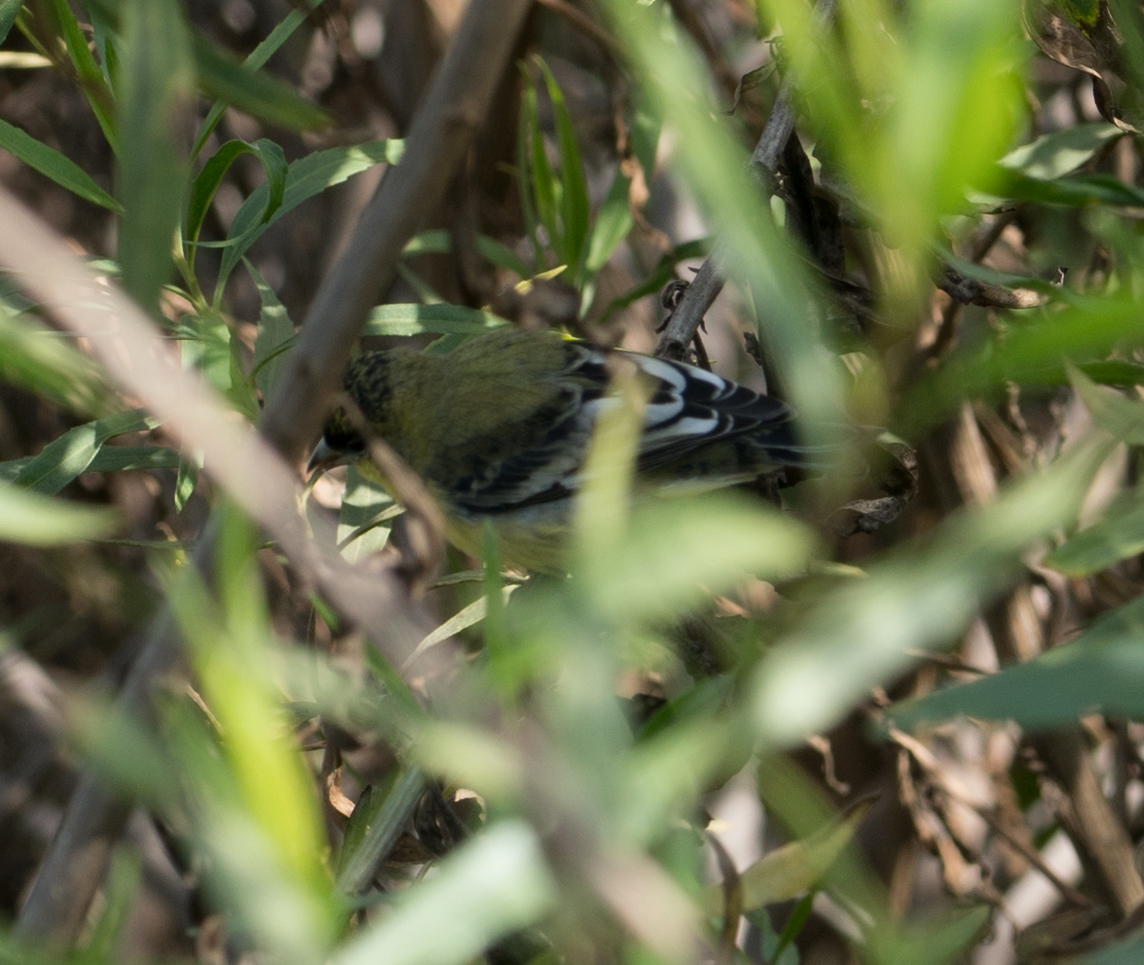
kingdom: Animalia
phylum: Chordata
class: Aves
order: Passeriformes
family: Fringillidae
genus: Spinus
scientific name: Spinus psaltria
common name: Lesser goldfinch
